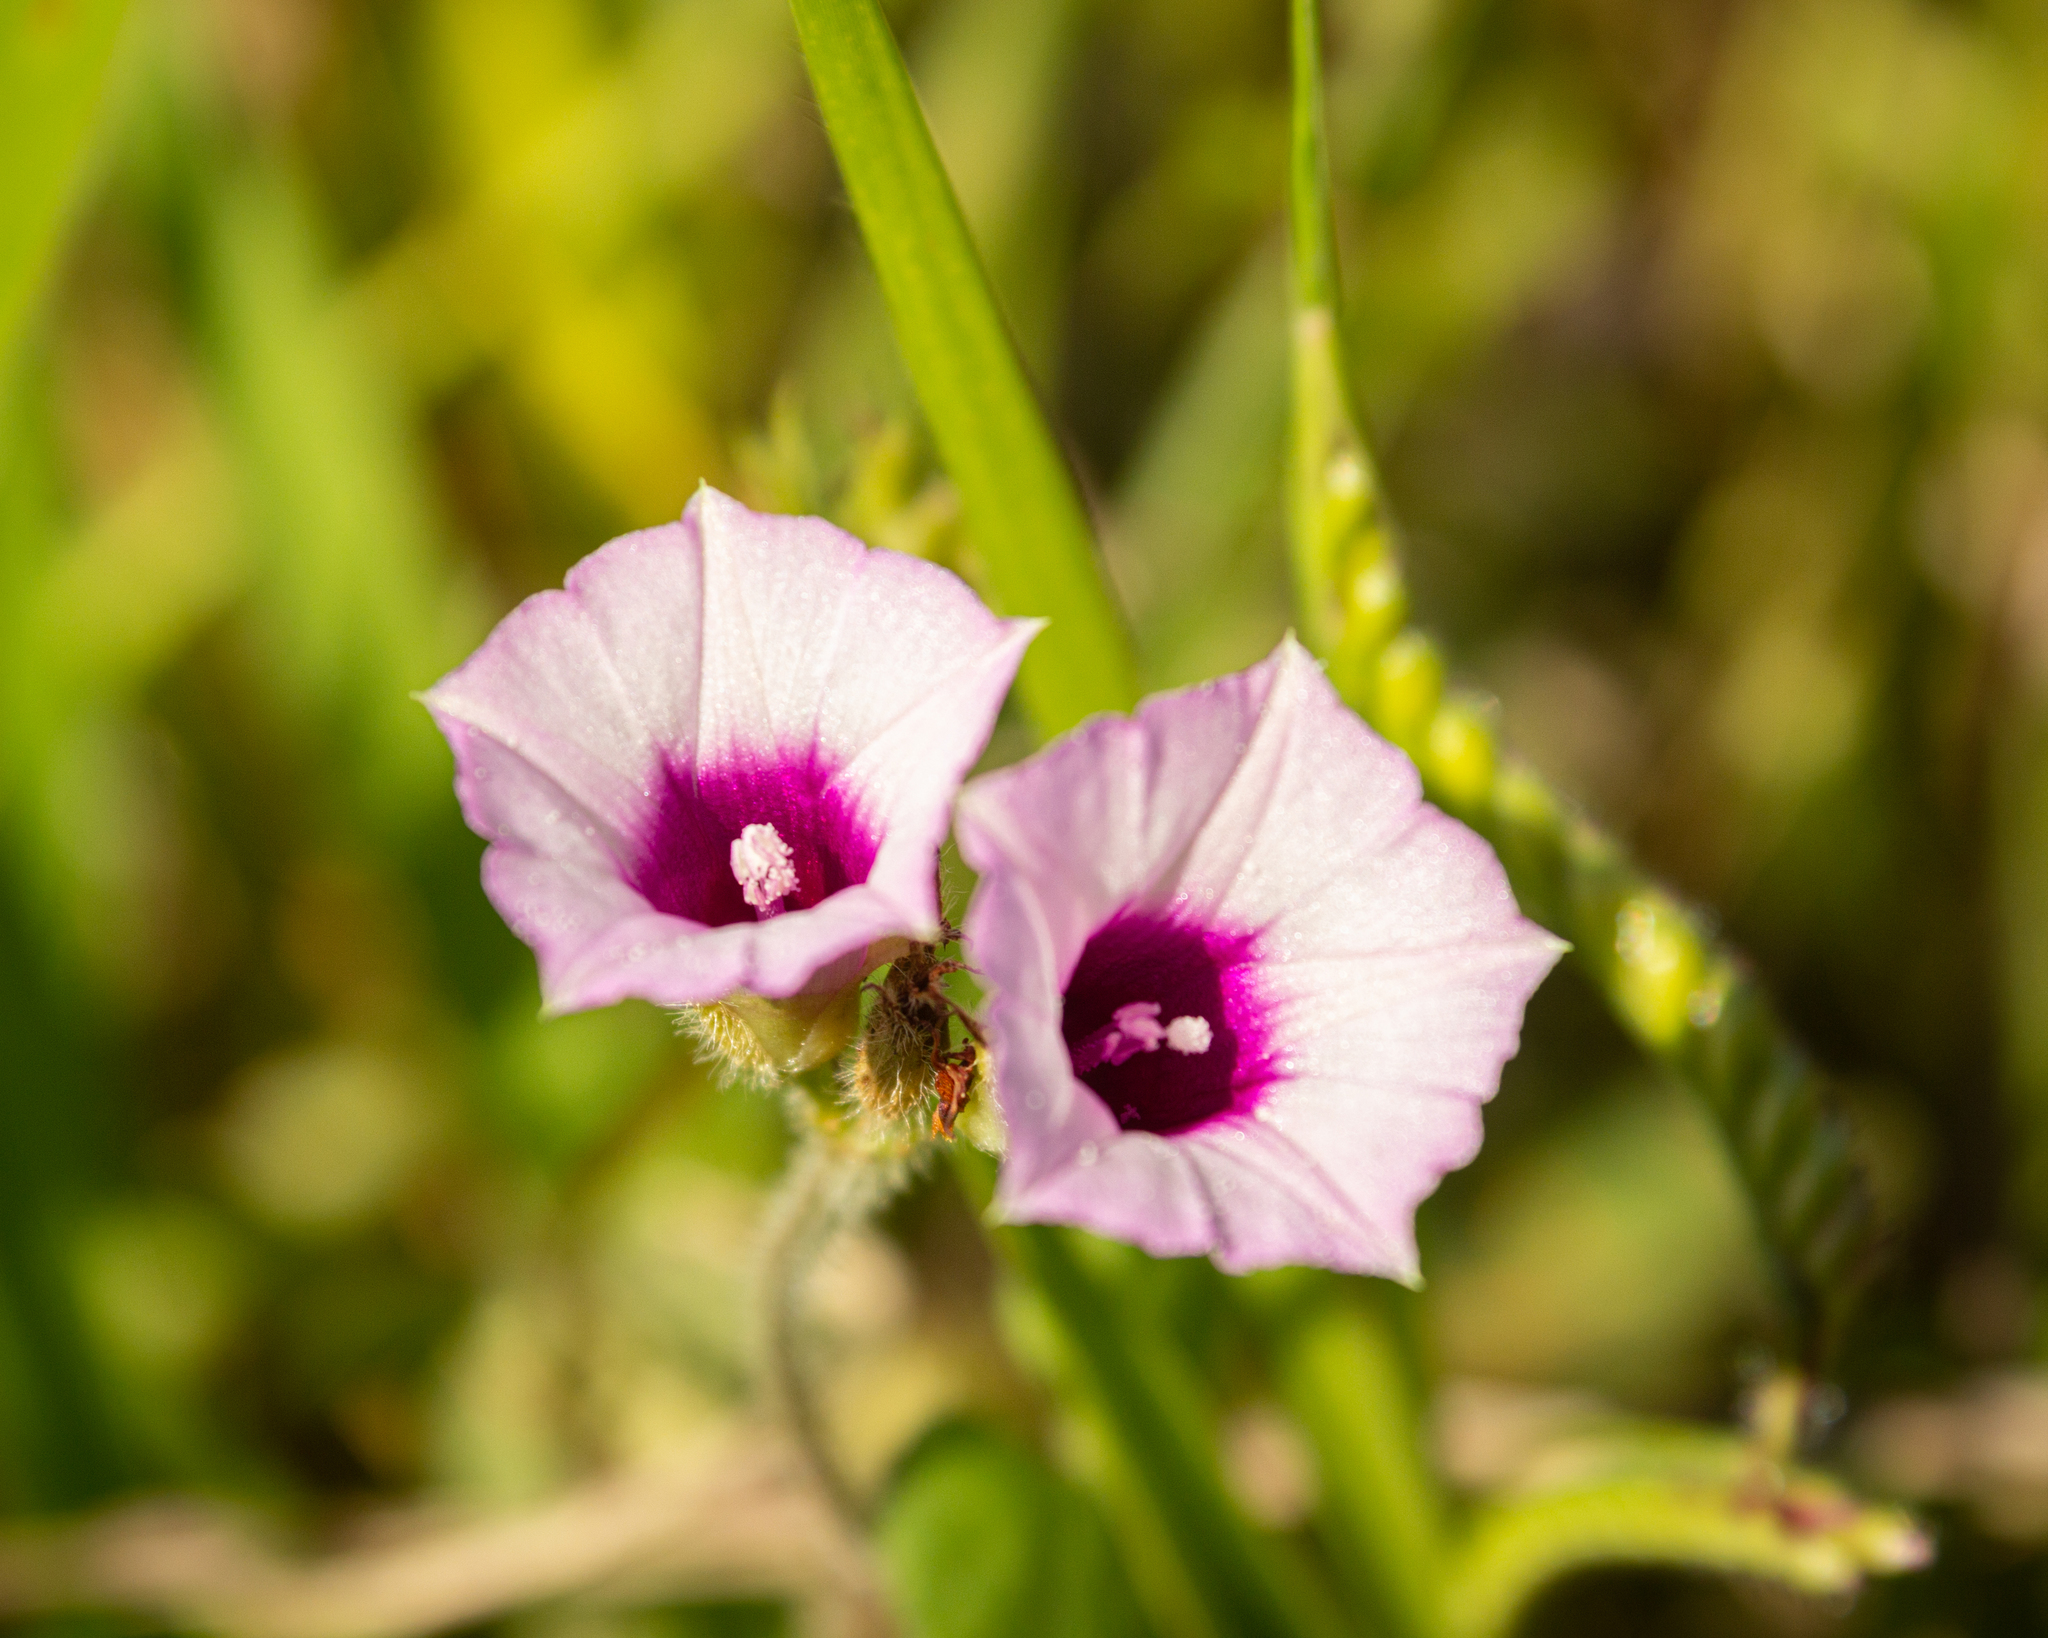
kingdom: Plantae
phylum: Tracheophyta
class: Magnoliopsida
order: Solanales
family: Convolvulaceae
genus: Ipomoea
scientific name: Ipomoea triloba
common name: Little-bell
